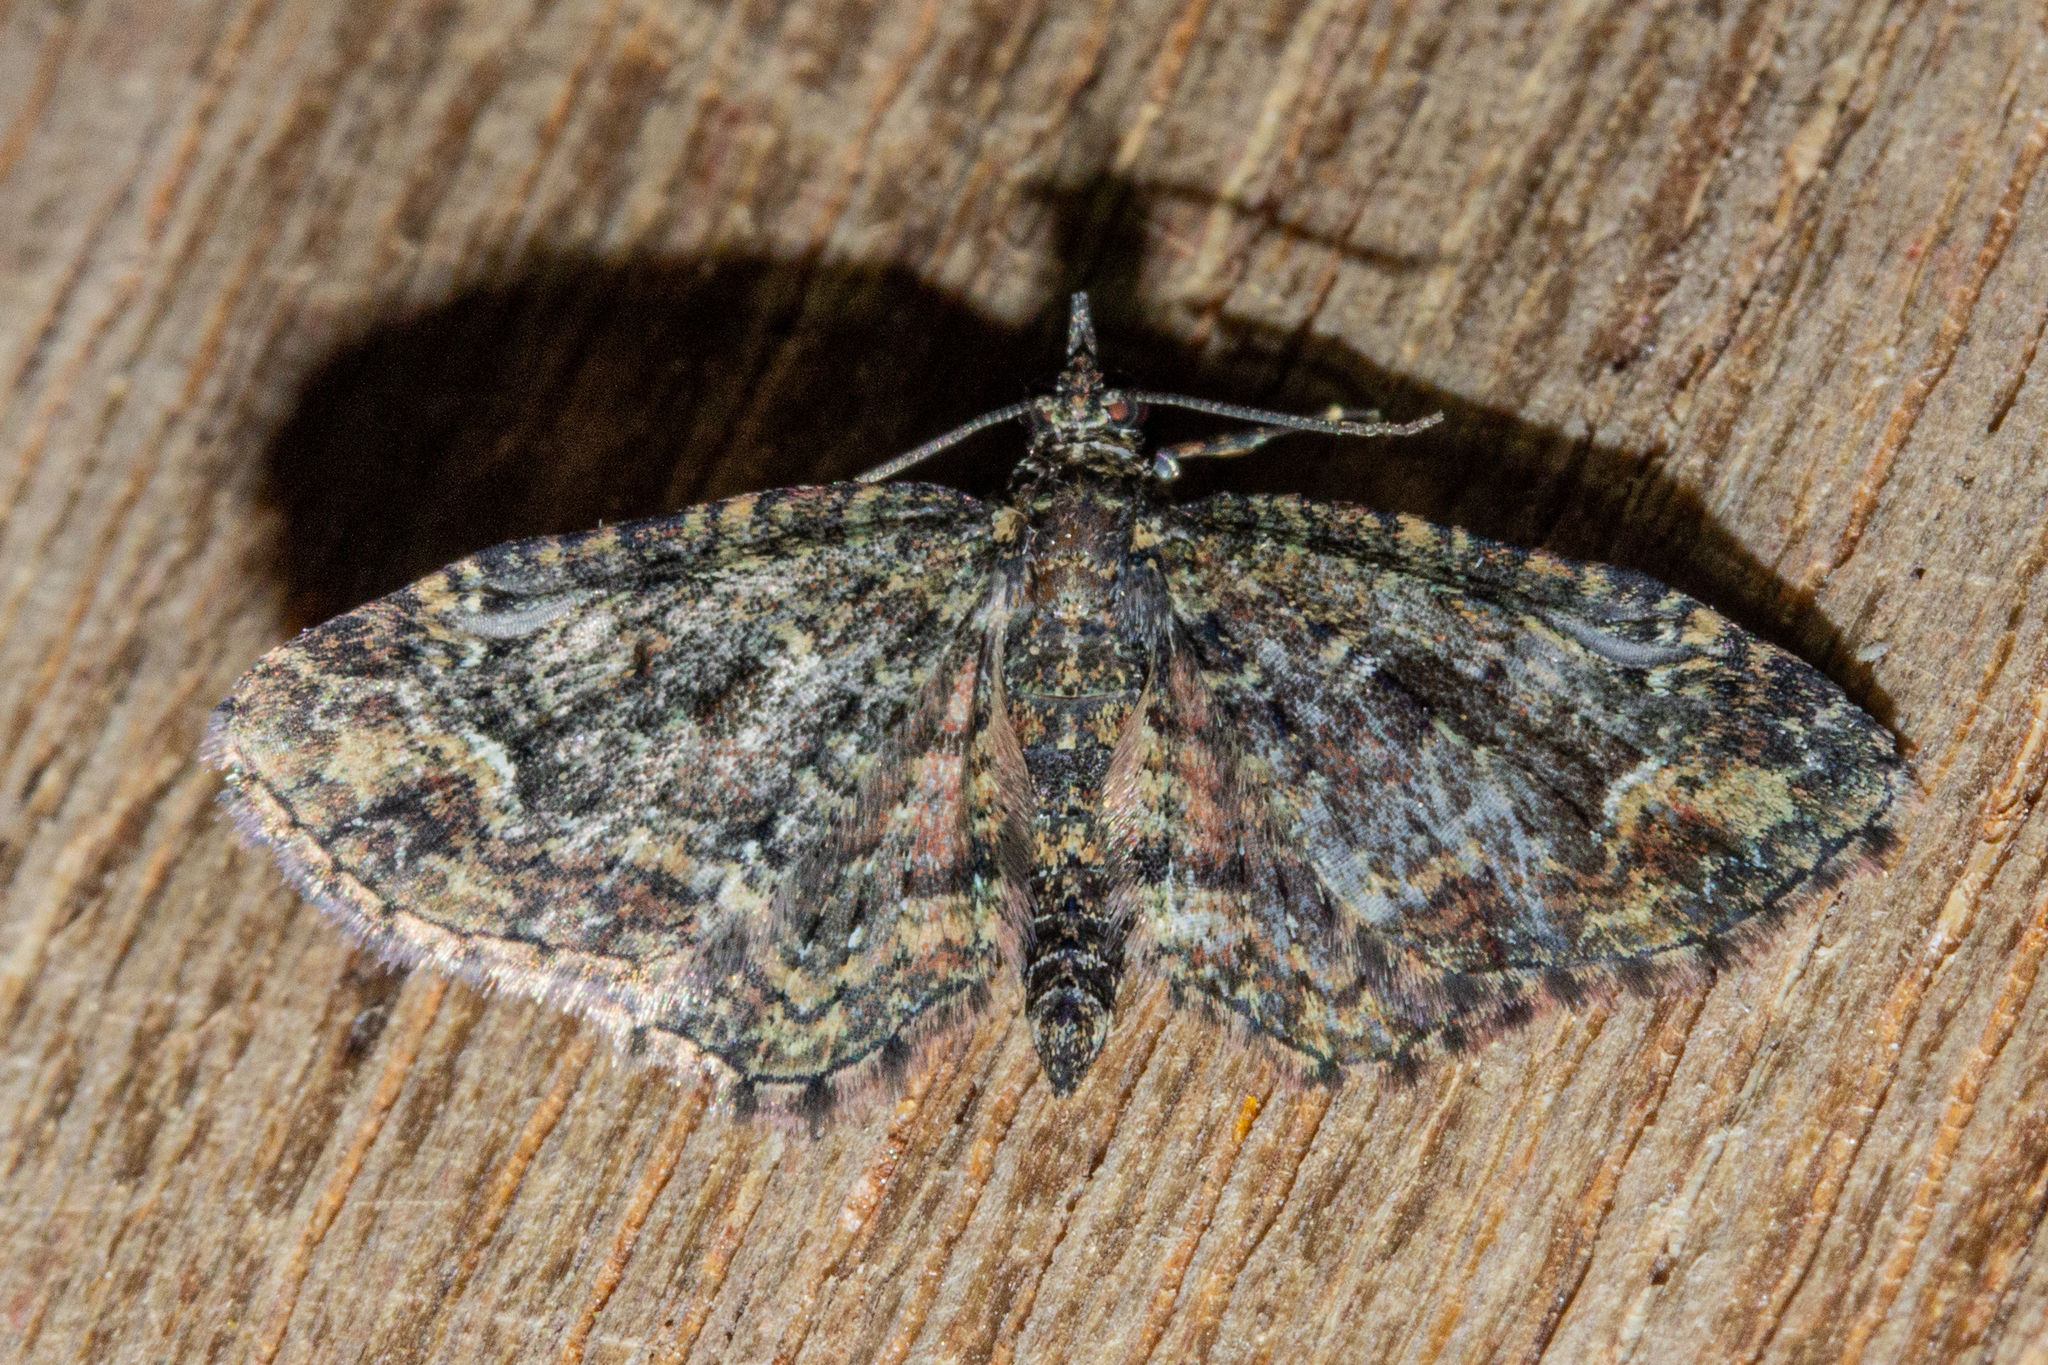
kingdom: Animalia
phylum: Arthropoda
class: Insecta
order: Lepidoptera
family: Geometridae
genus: Pasiphilodes
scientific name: Pasiphilodes testulata
